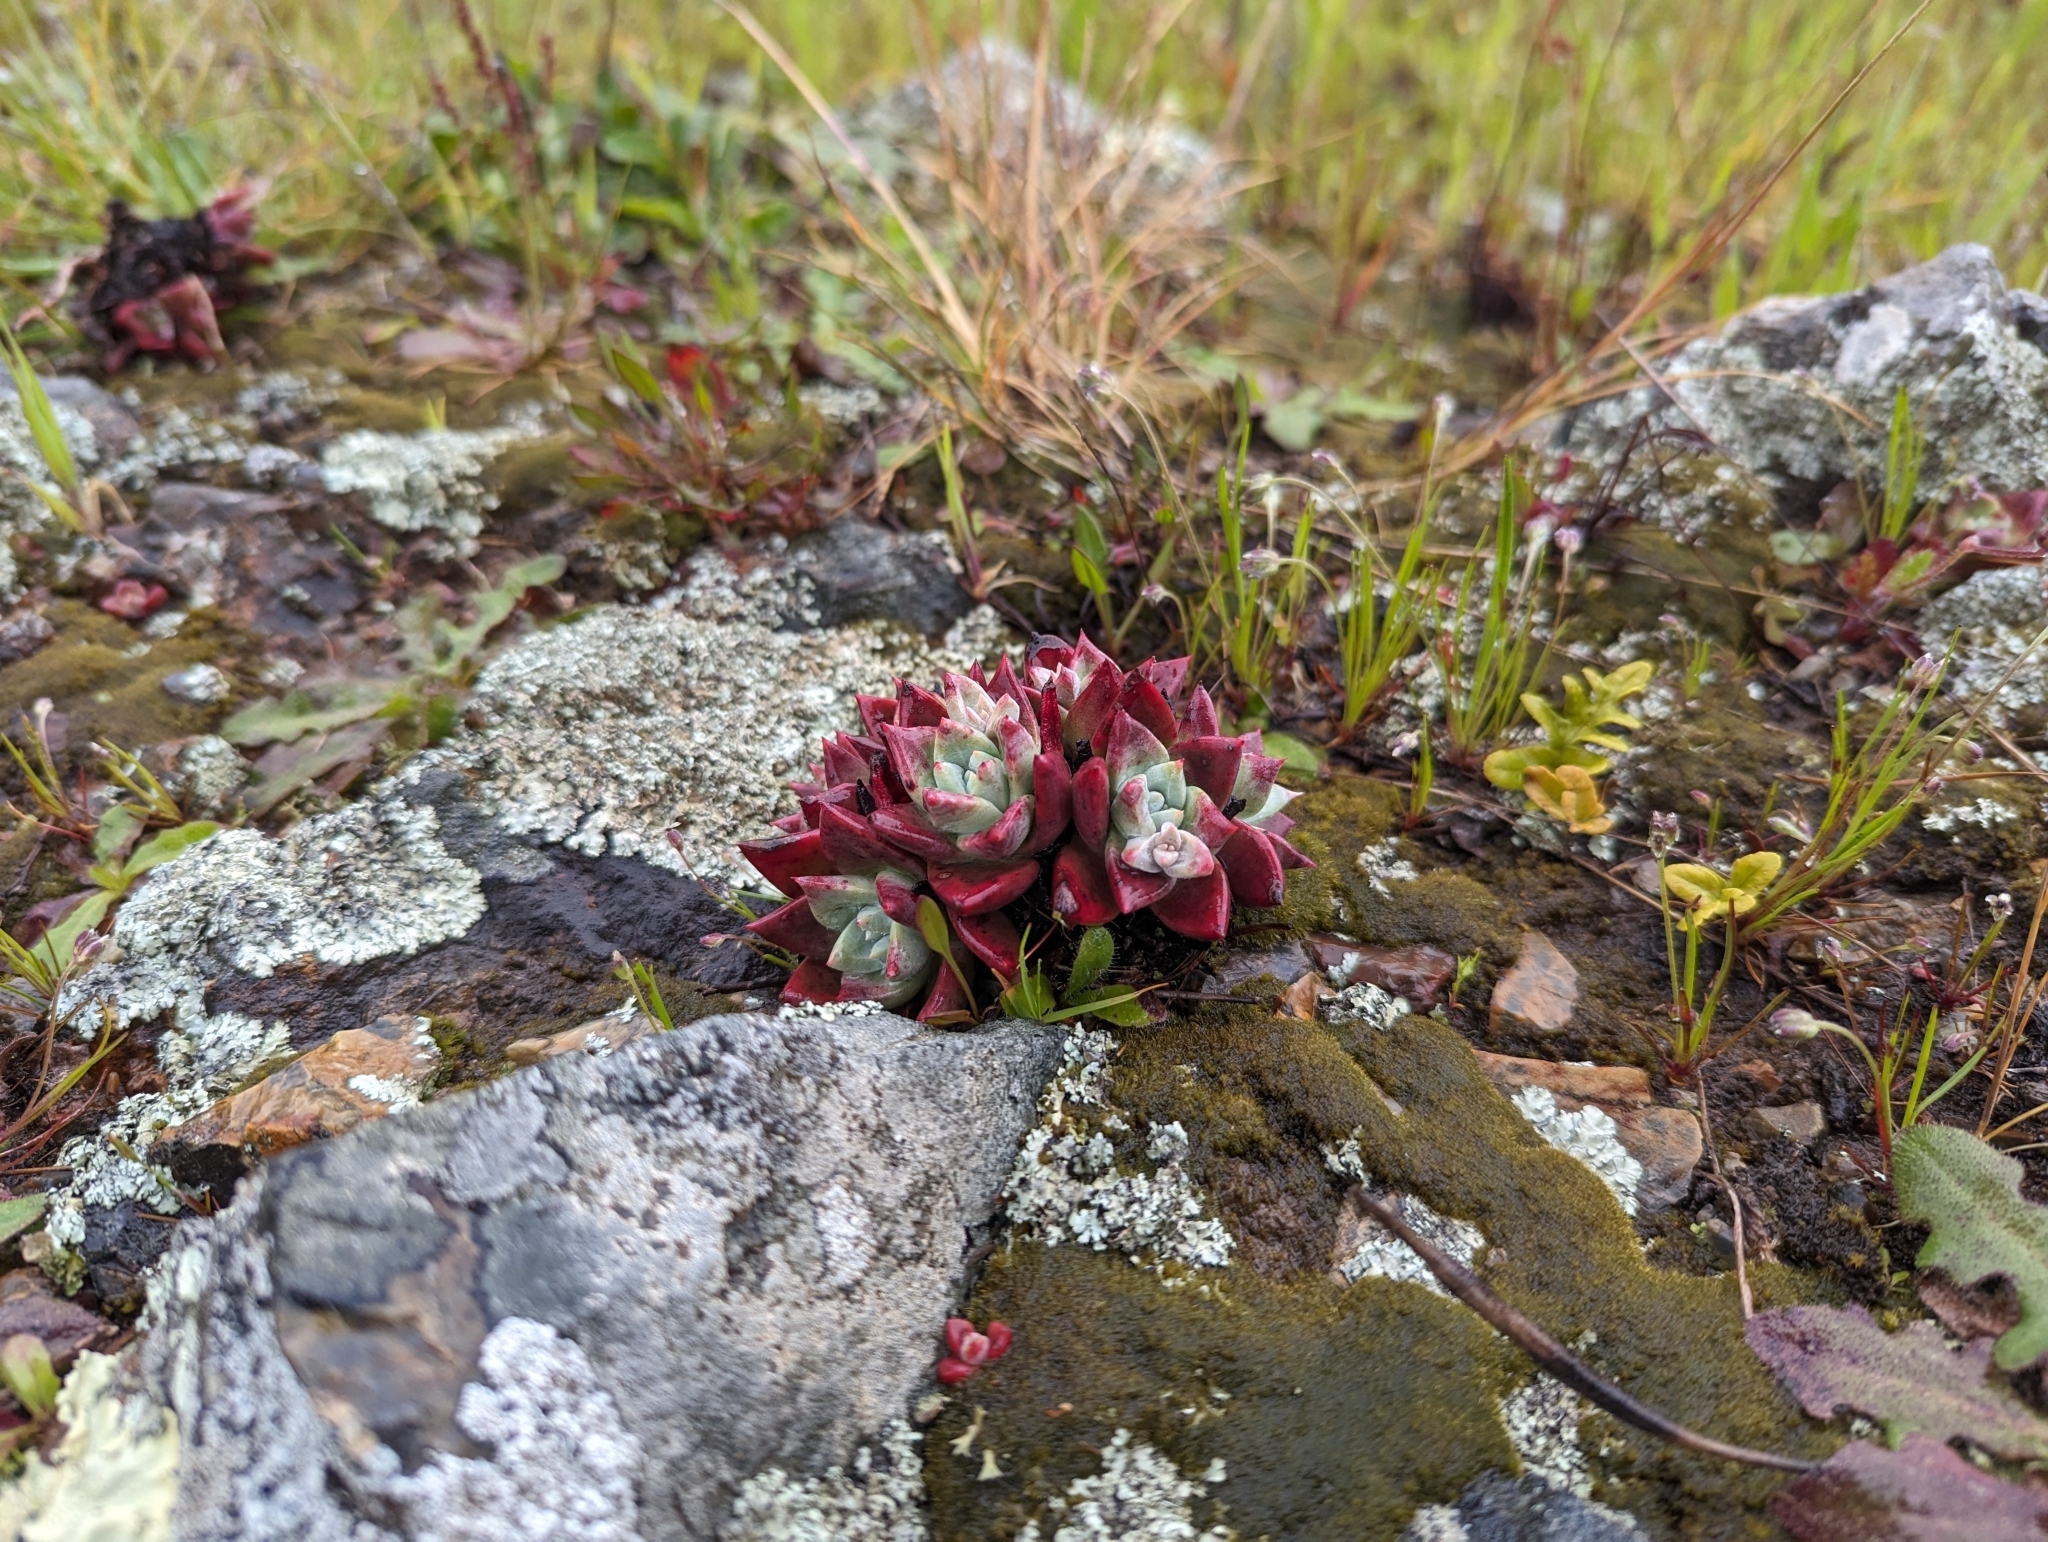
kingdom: Plantae
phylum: Tracheophyta
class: Magnoliopsida
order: Saxifragales
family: Crassulaceae
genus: Dudleya
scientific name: Dudleya farinosa
